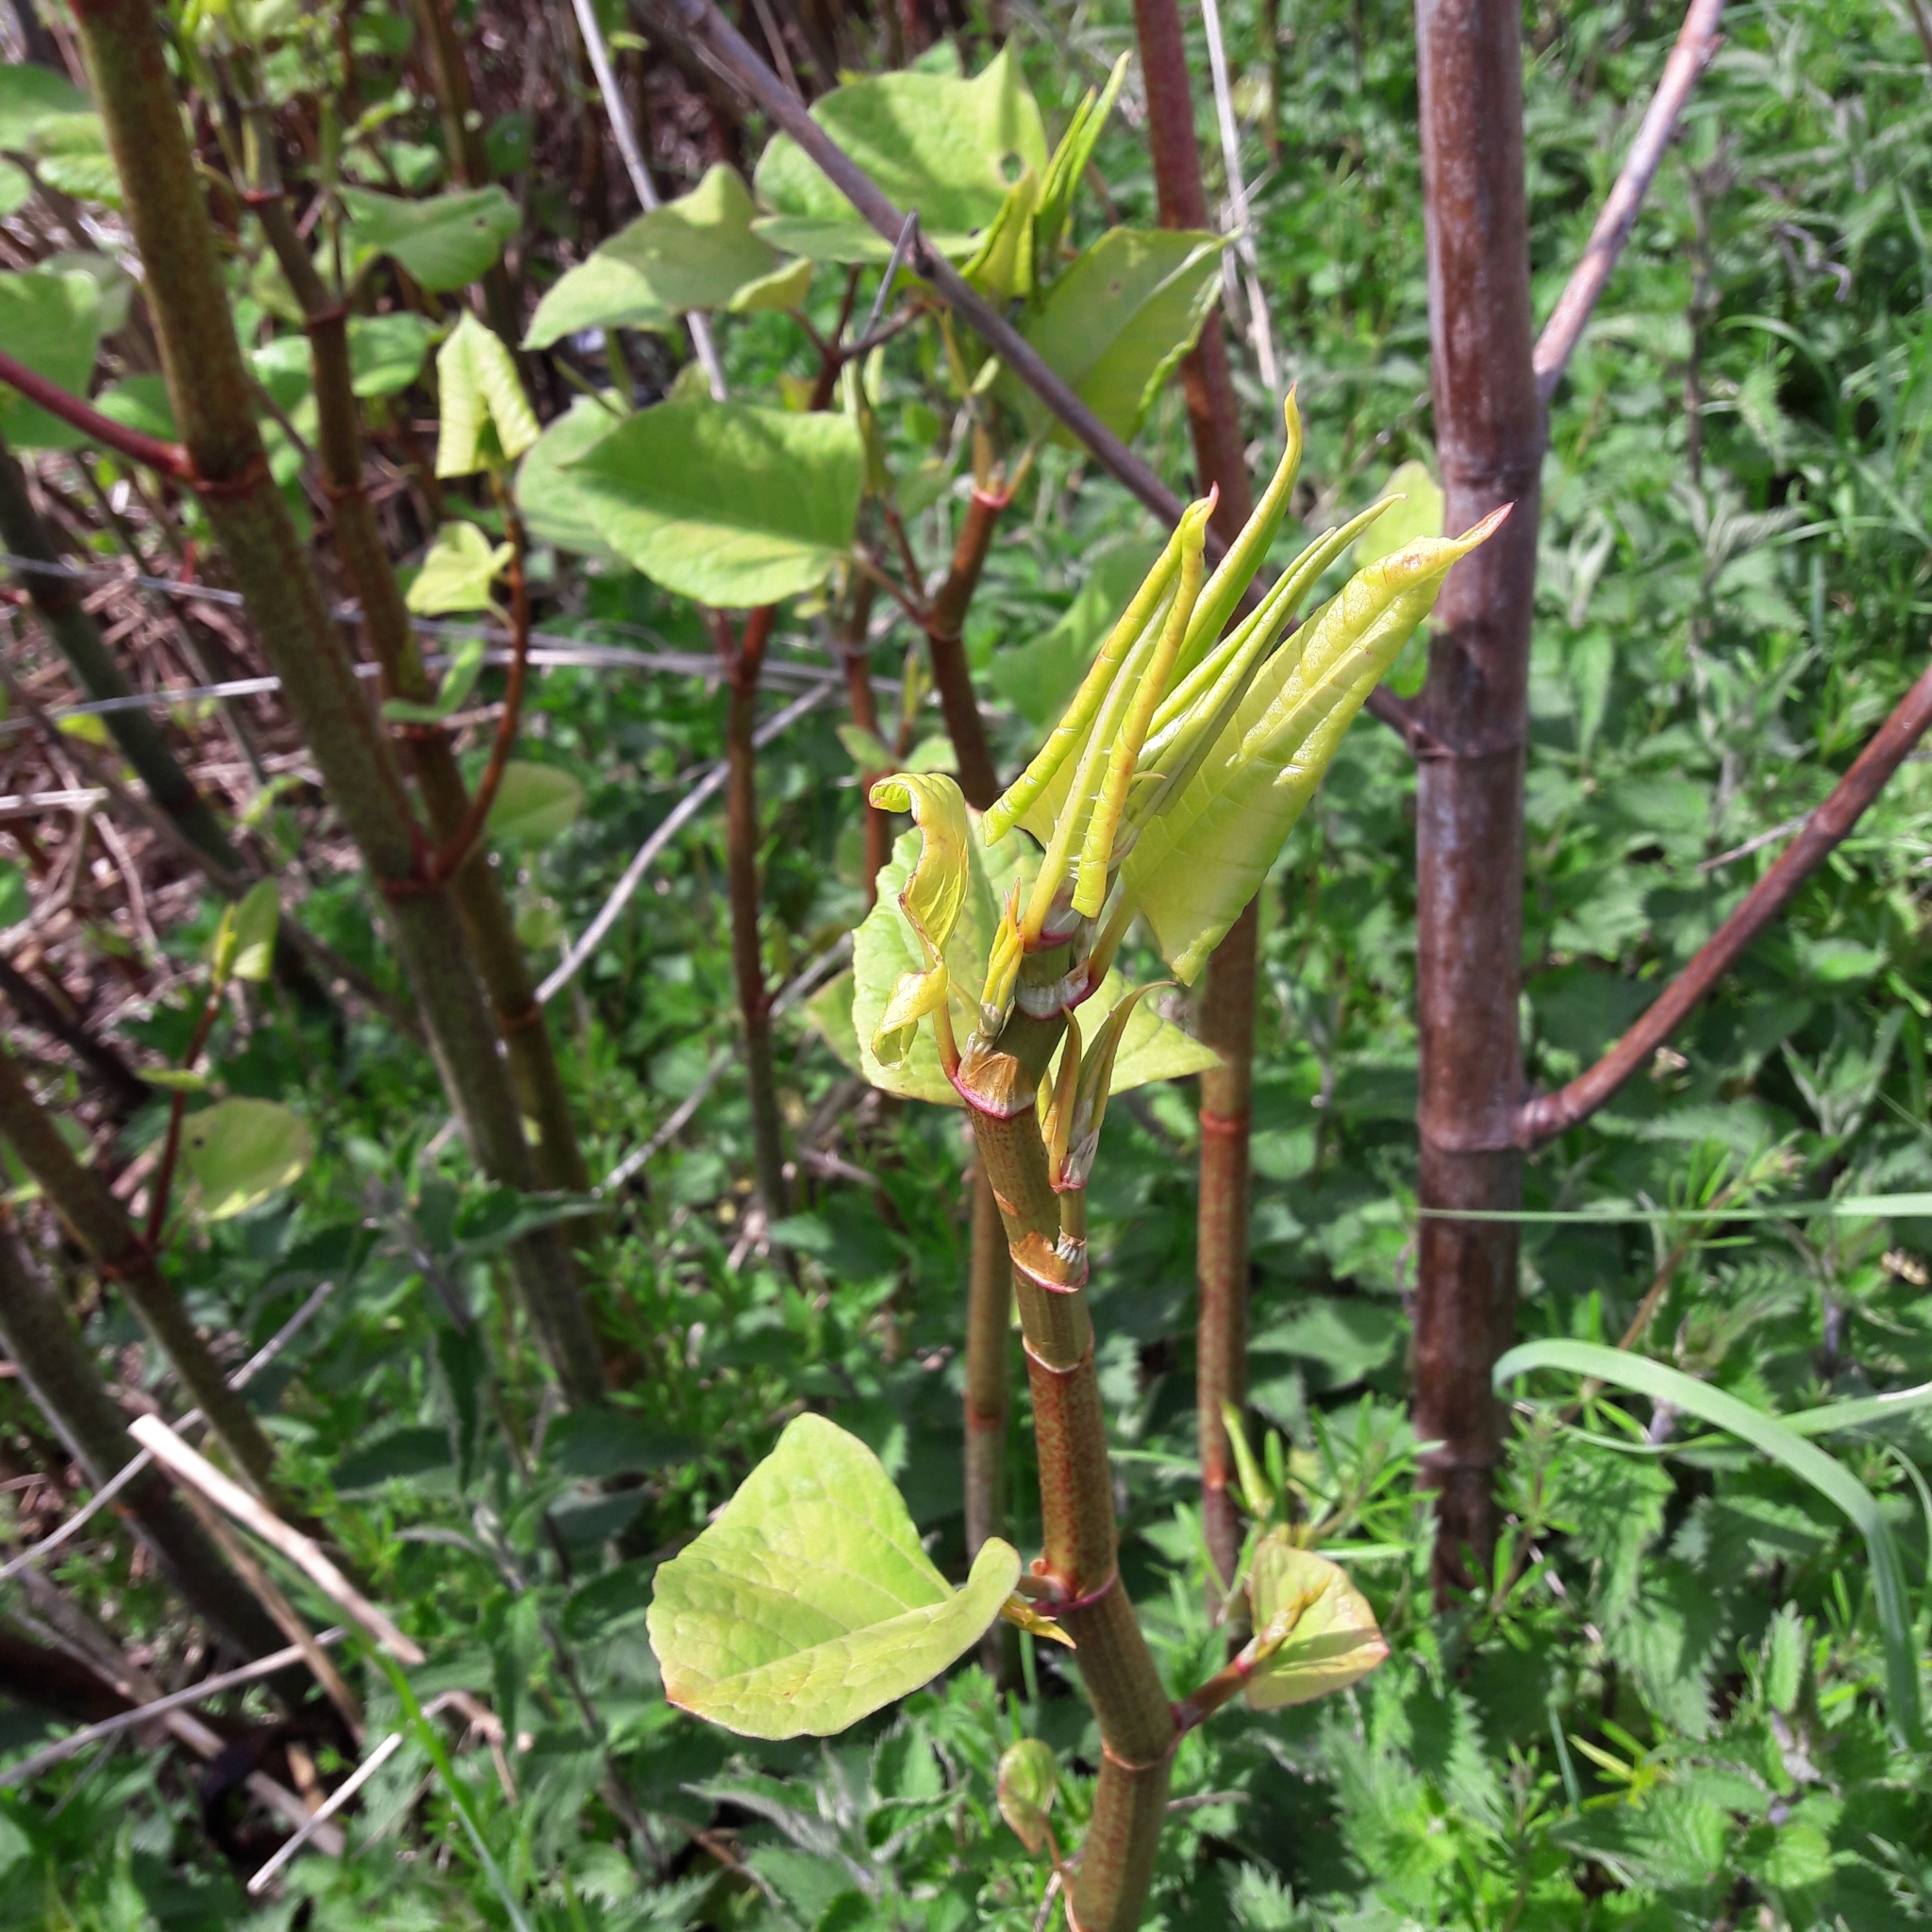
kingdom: Plantae
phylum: Tracheophyta
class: Magnoliopsida
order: Caryophyllales
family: Polygonaceae
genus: Reynoutria
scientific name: Reynoutria japonica
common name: Japanese knotweed
